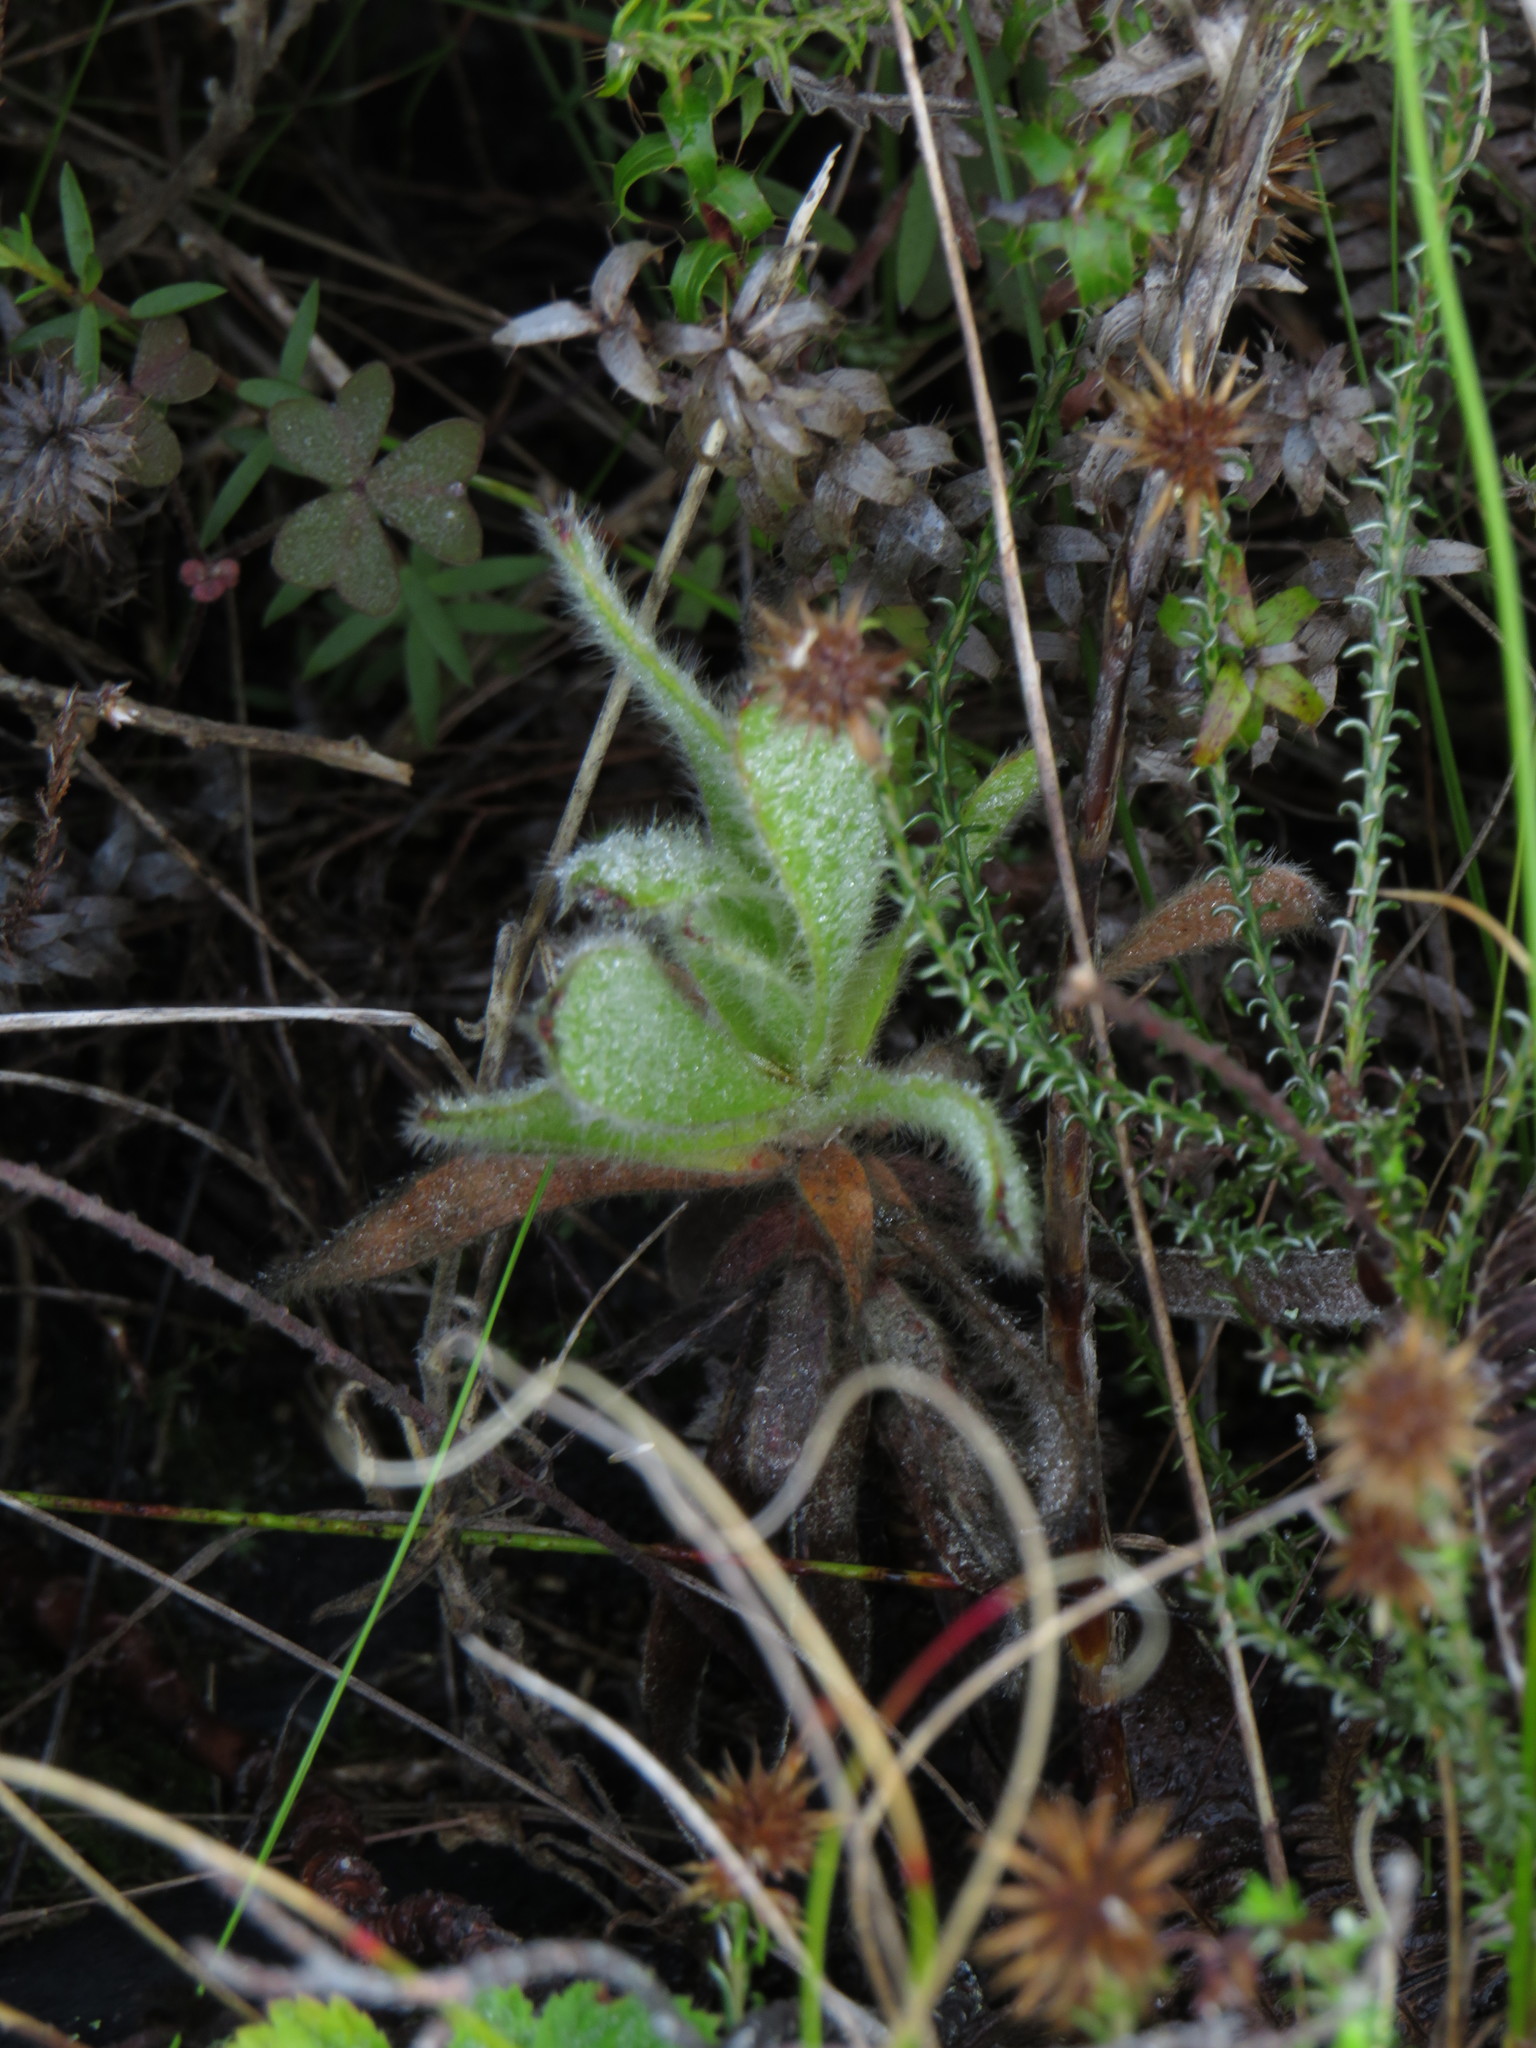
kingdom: Plantae
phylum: Tracheophyta
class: Magnoliopsida
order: Proteales
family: Proteaceae
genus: Leucospermum
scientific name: Leucospermum conocarpodendron
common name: Tree pincushion
